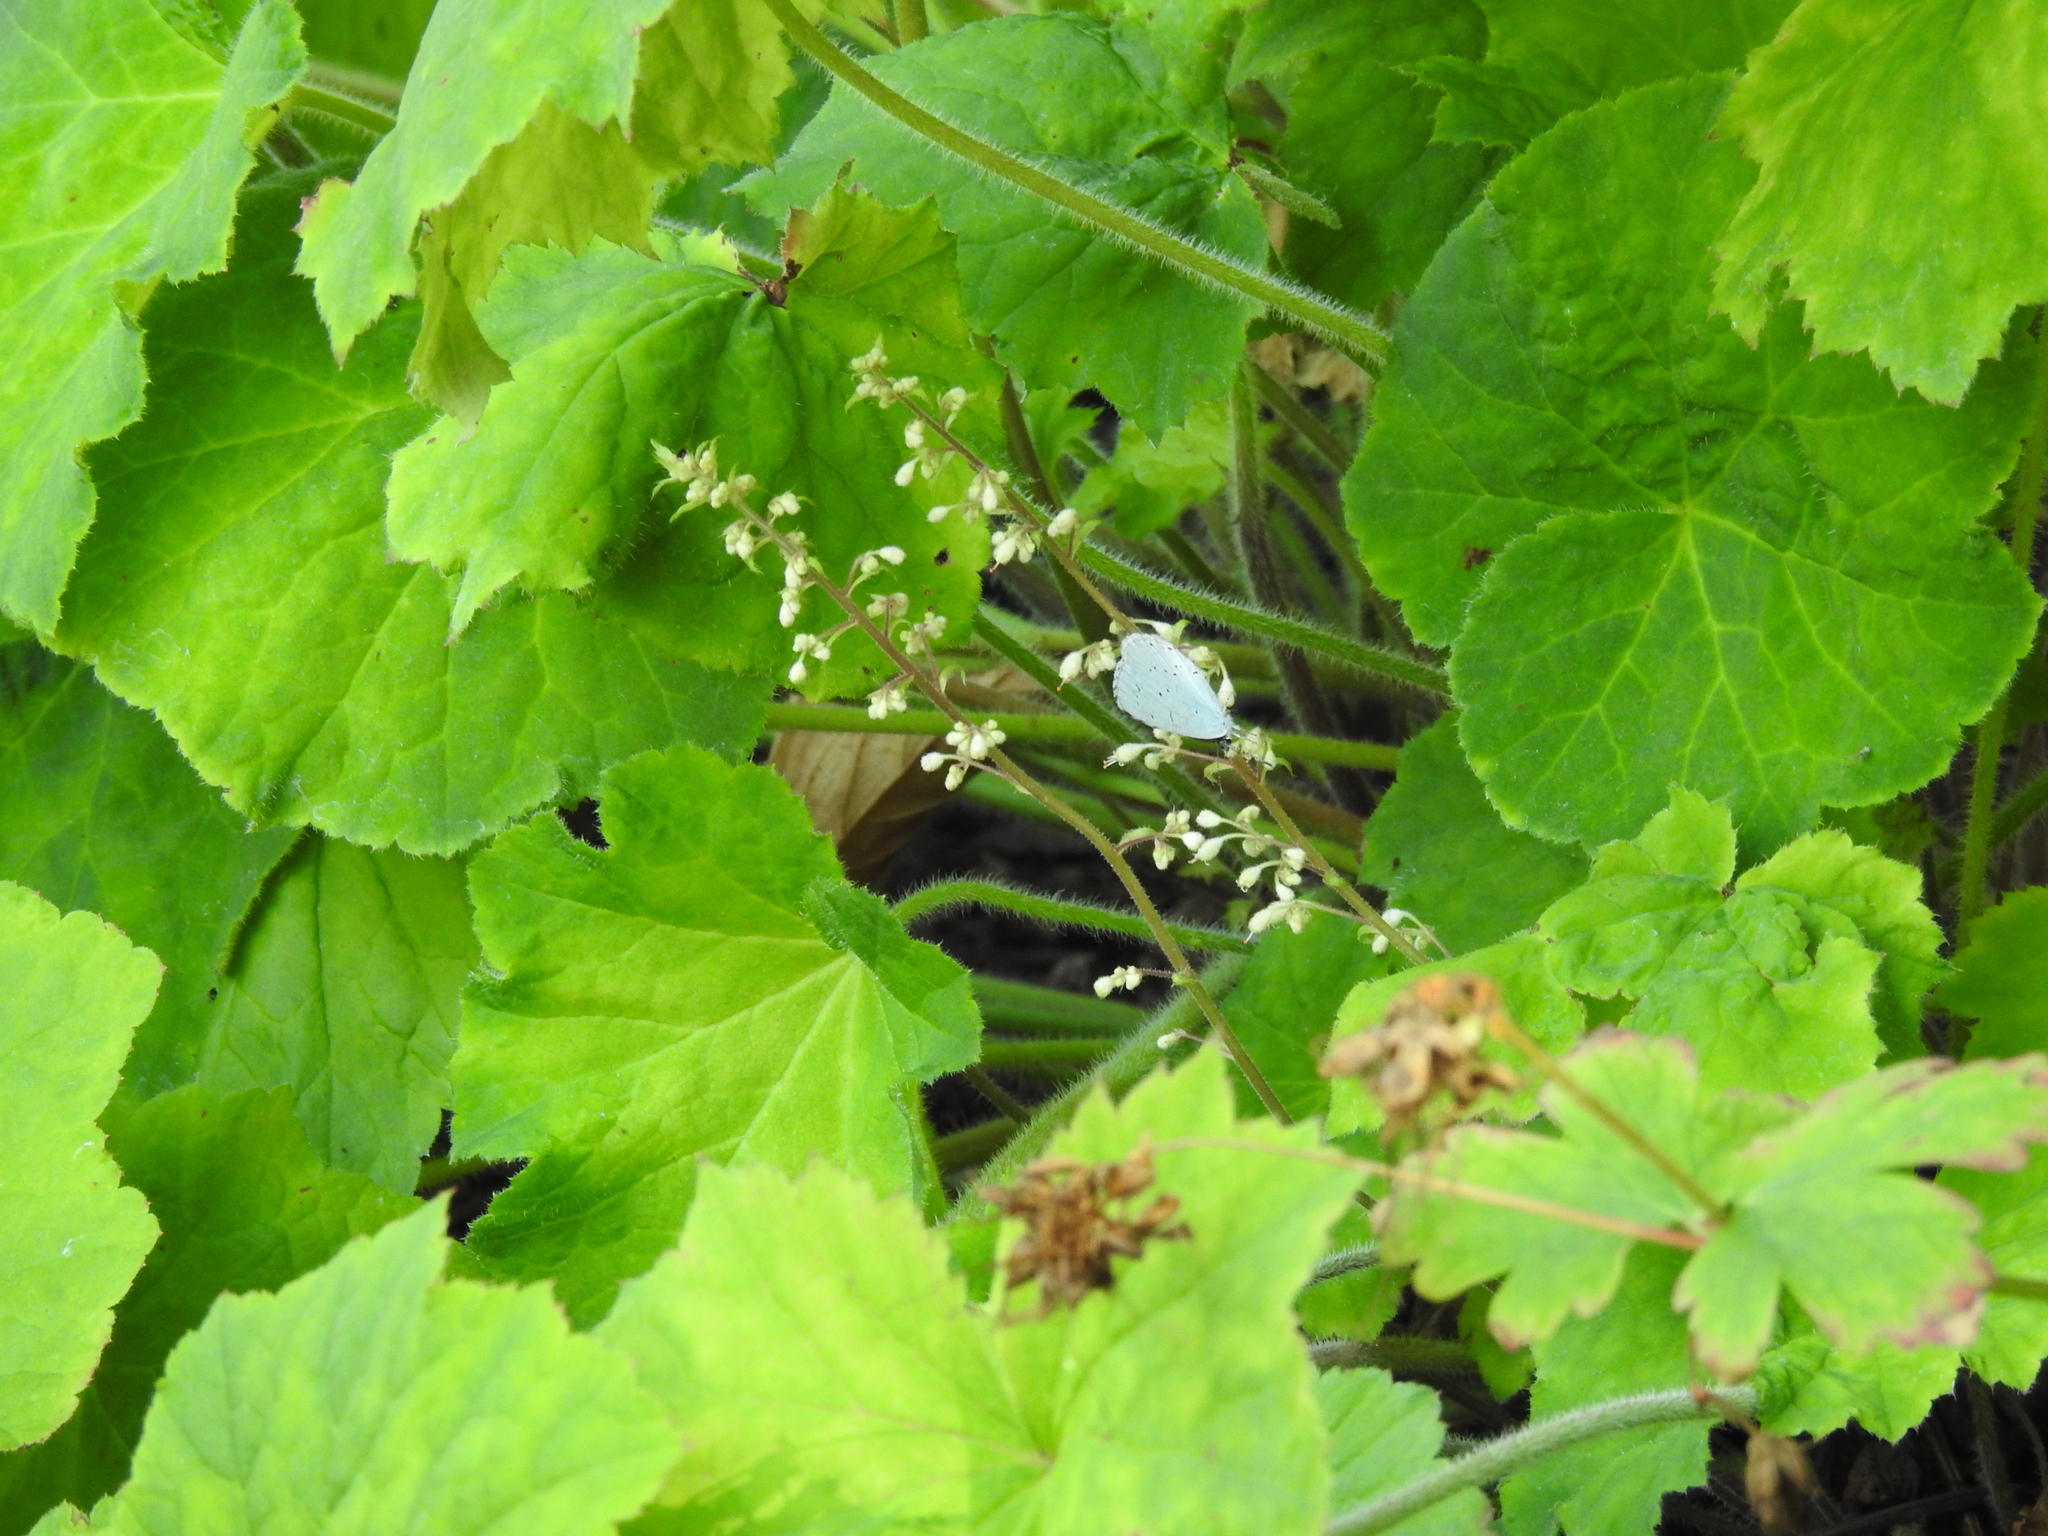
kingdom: Animalia
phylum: Arthropoda
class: Insecta
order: Lepidoptera
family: Lycaenidae
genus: Celastrina
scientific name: Celastrina argiolus
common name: Holly blue
